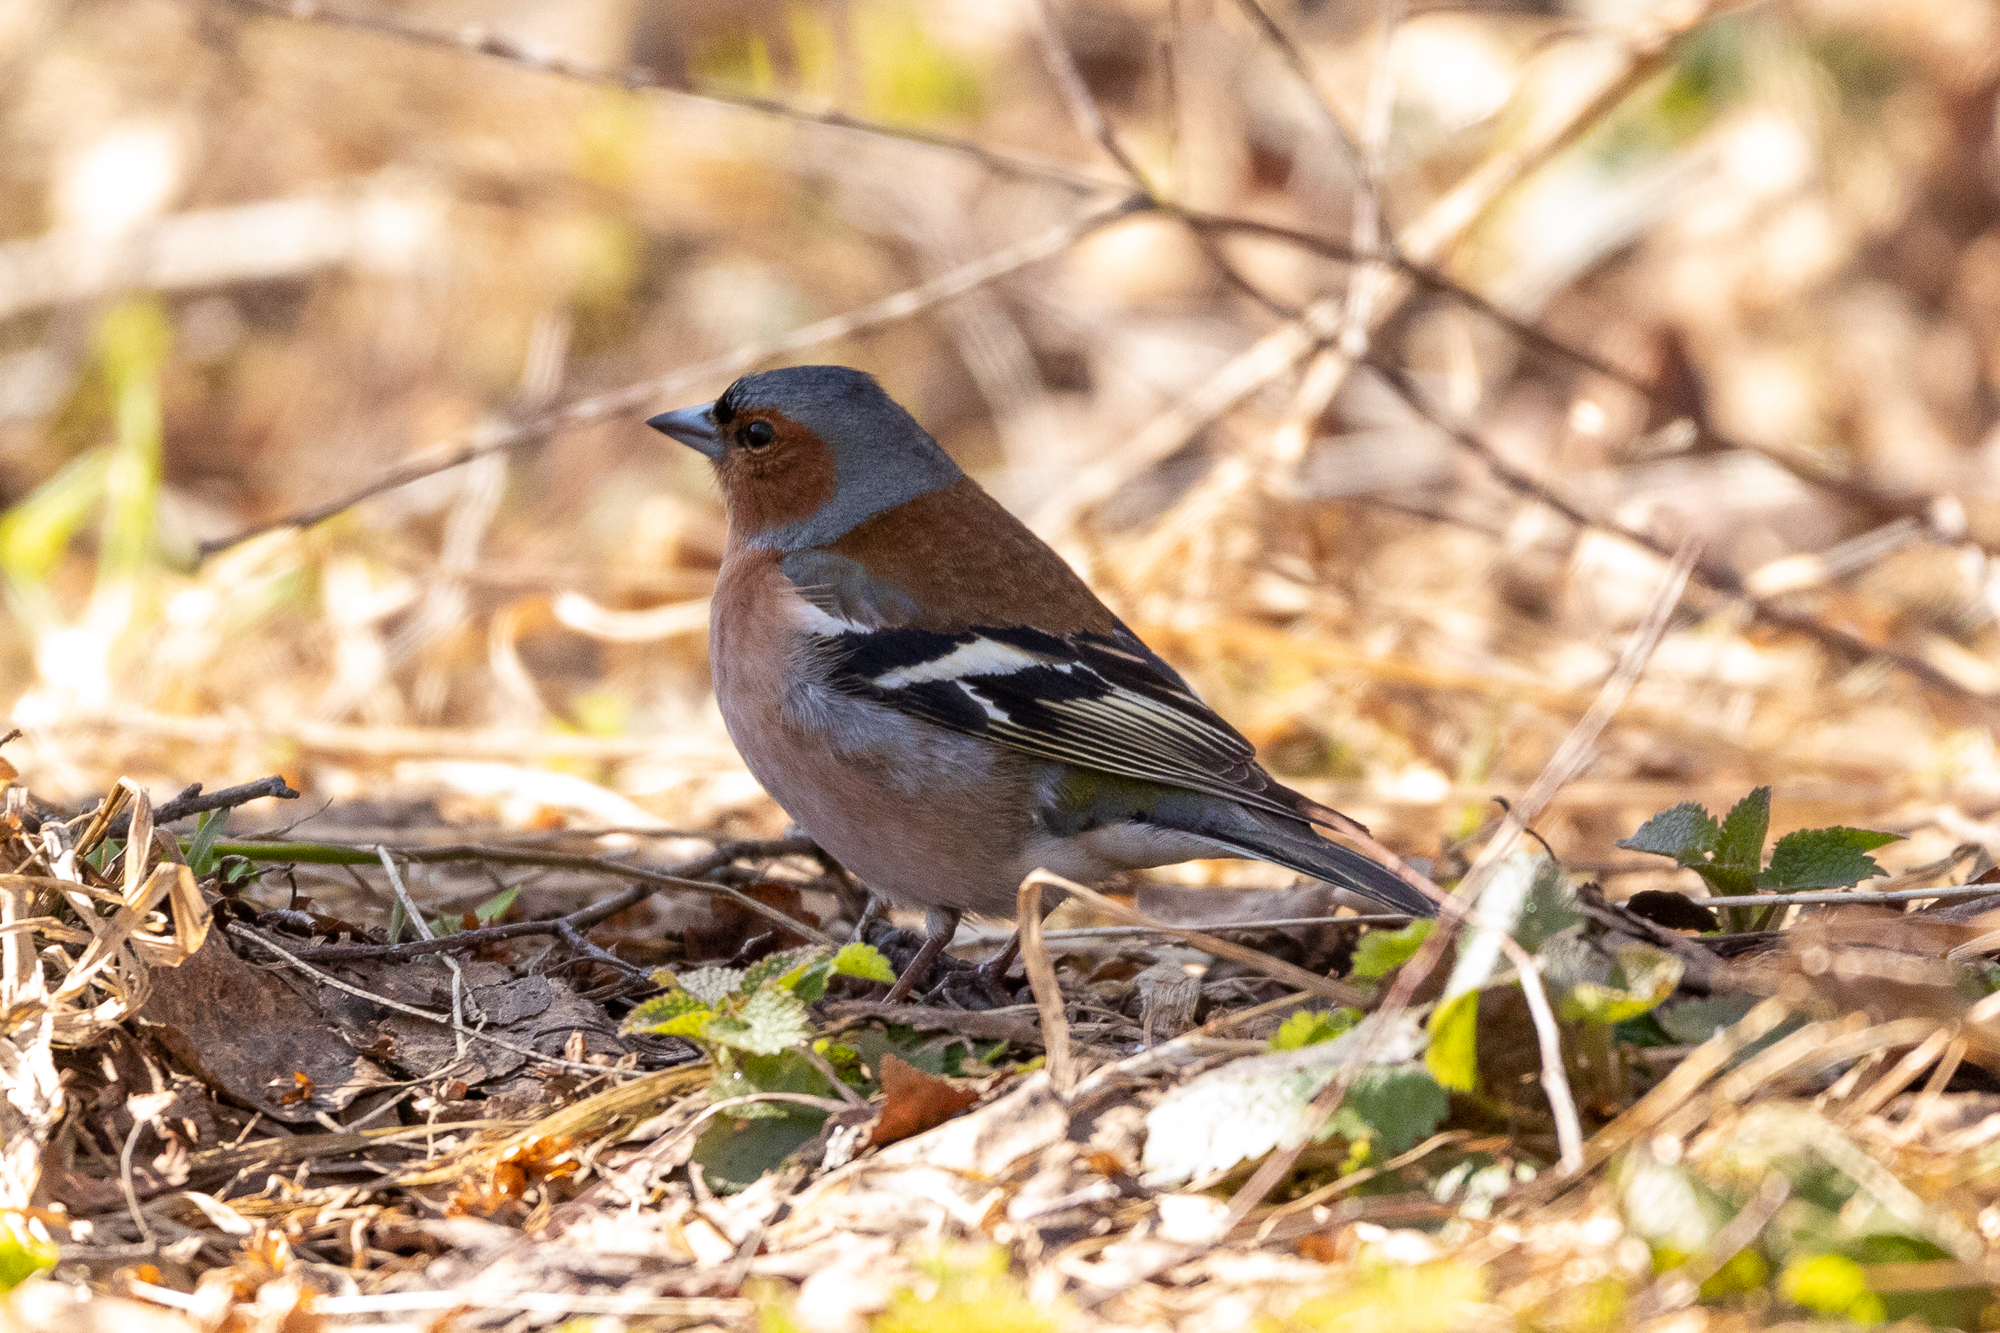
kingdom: Animalia
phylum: Chordata
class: Aves
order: Passeriformes
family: Fringillidae
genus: Fringilla
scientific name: Fringilla coelebs
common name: Common chaffinch
